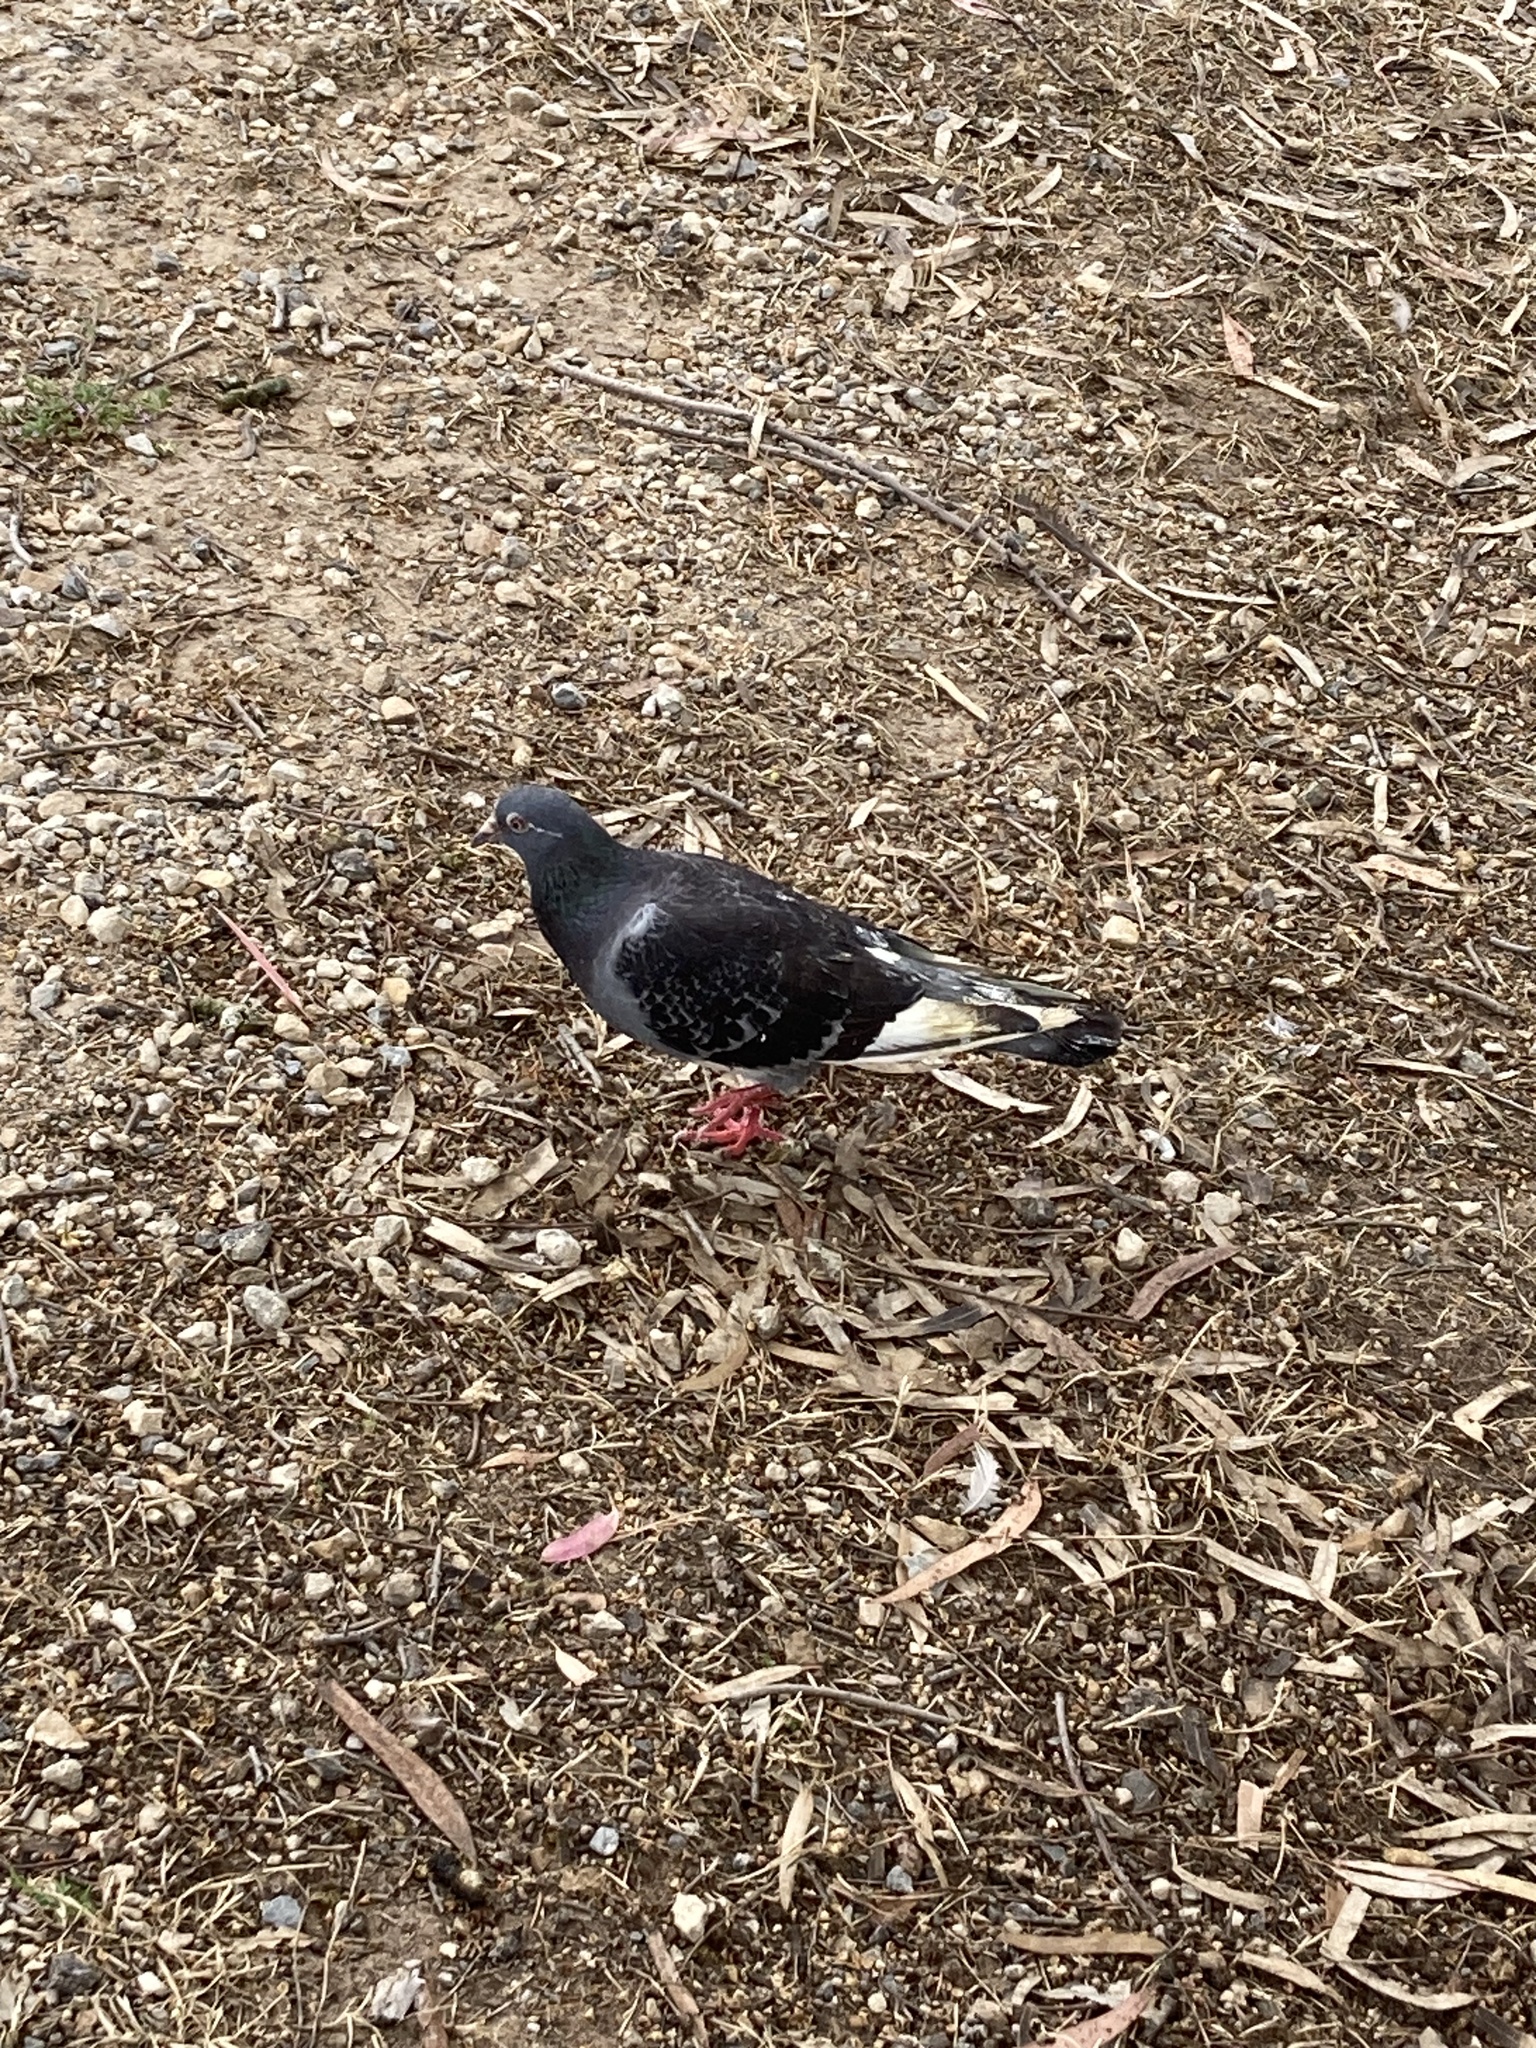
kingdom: Animalia
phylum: Chordata
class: Aves
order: Columbiformes
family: Columbidae
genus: Columba
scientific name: Columba livia
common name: Rock pigeon
